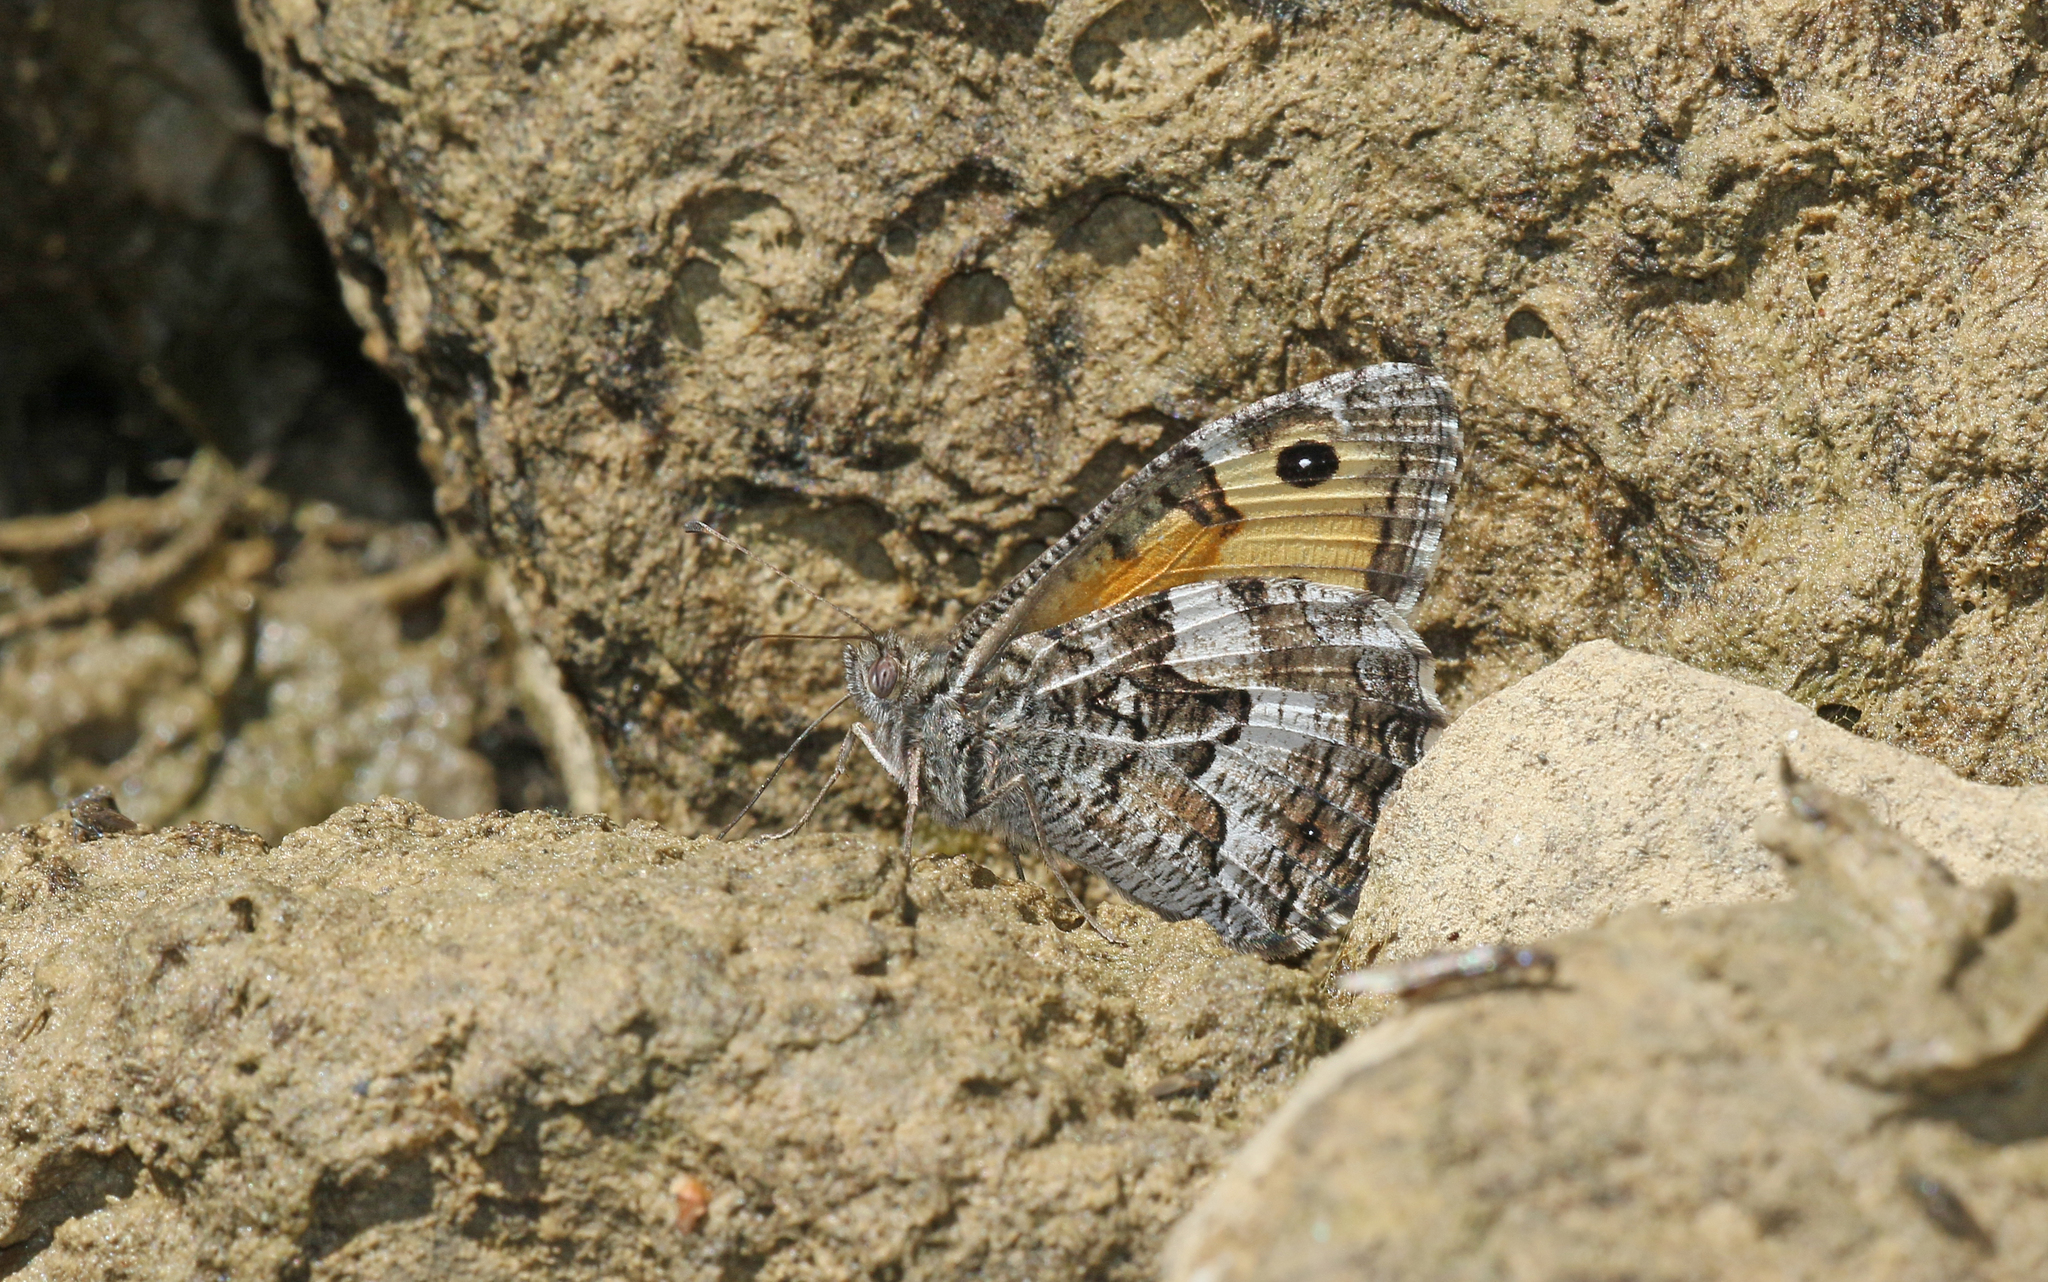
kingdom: Animalia
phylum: Arthropoda
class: Insecta
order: Lepidoptera
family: Nymphalidae
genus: Hipparchia
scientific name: Hipparchia semele
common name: Grayling
